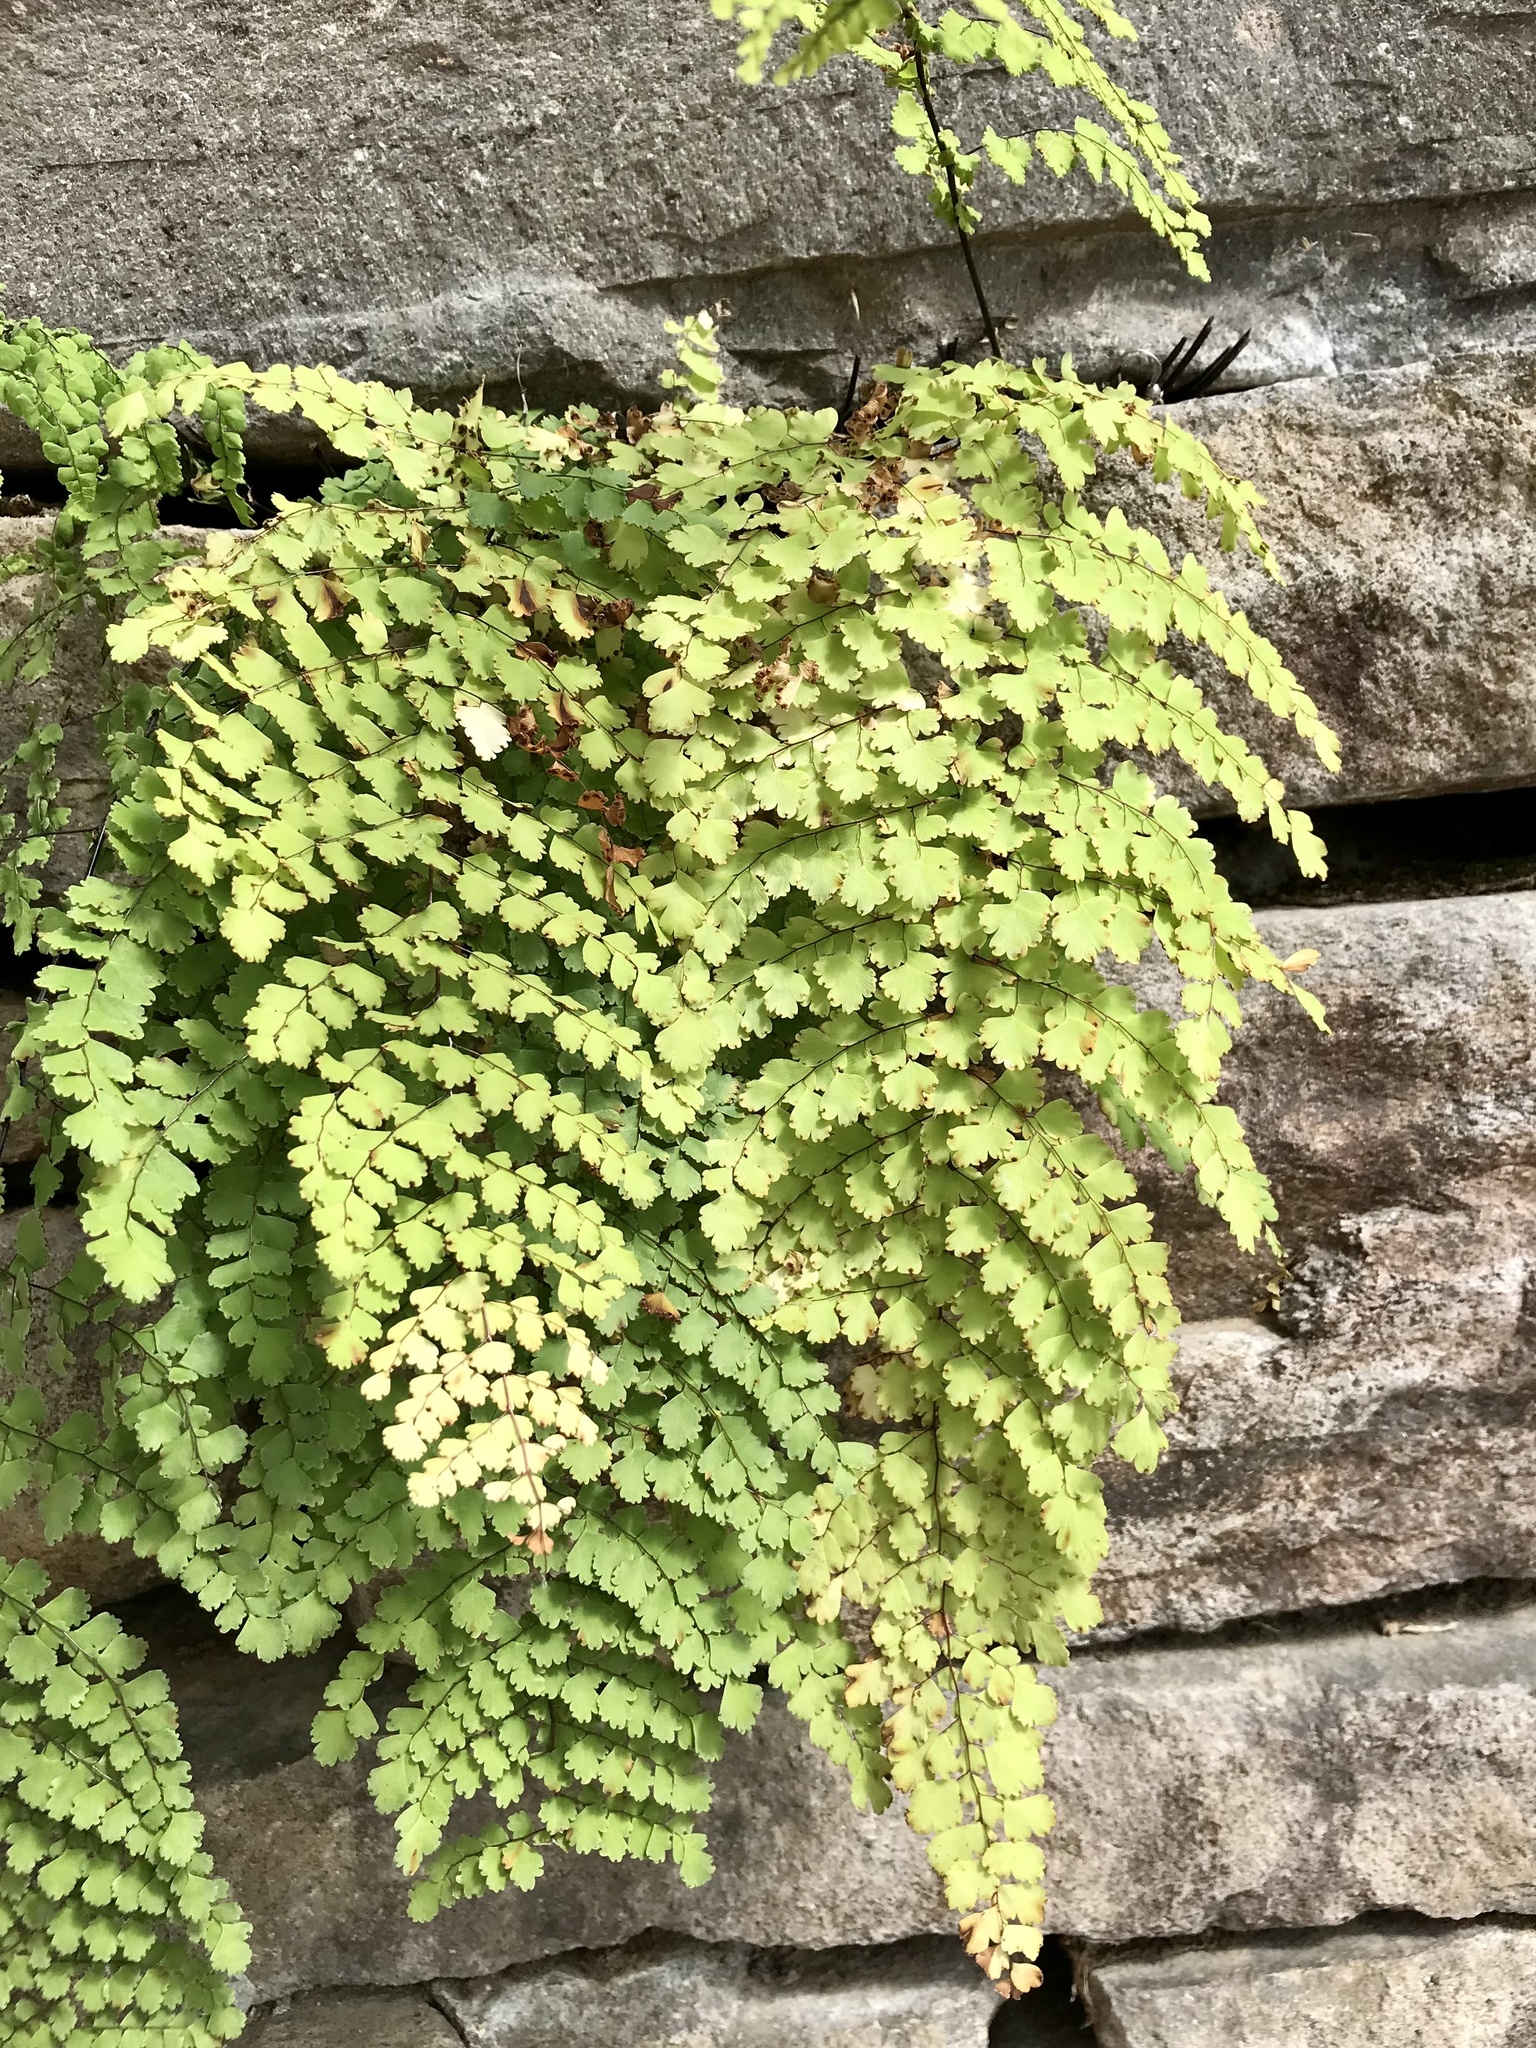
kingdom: Plantae
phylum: Tracheophyta
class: Polypodiopsida
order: Polypodiales
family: Pteridaceae
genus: Adiantum
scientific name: Adiantum concinnum
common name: Brittle maidenhair fern
